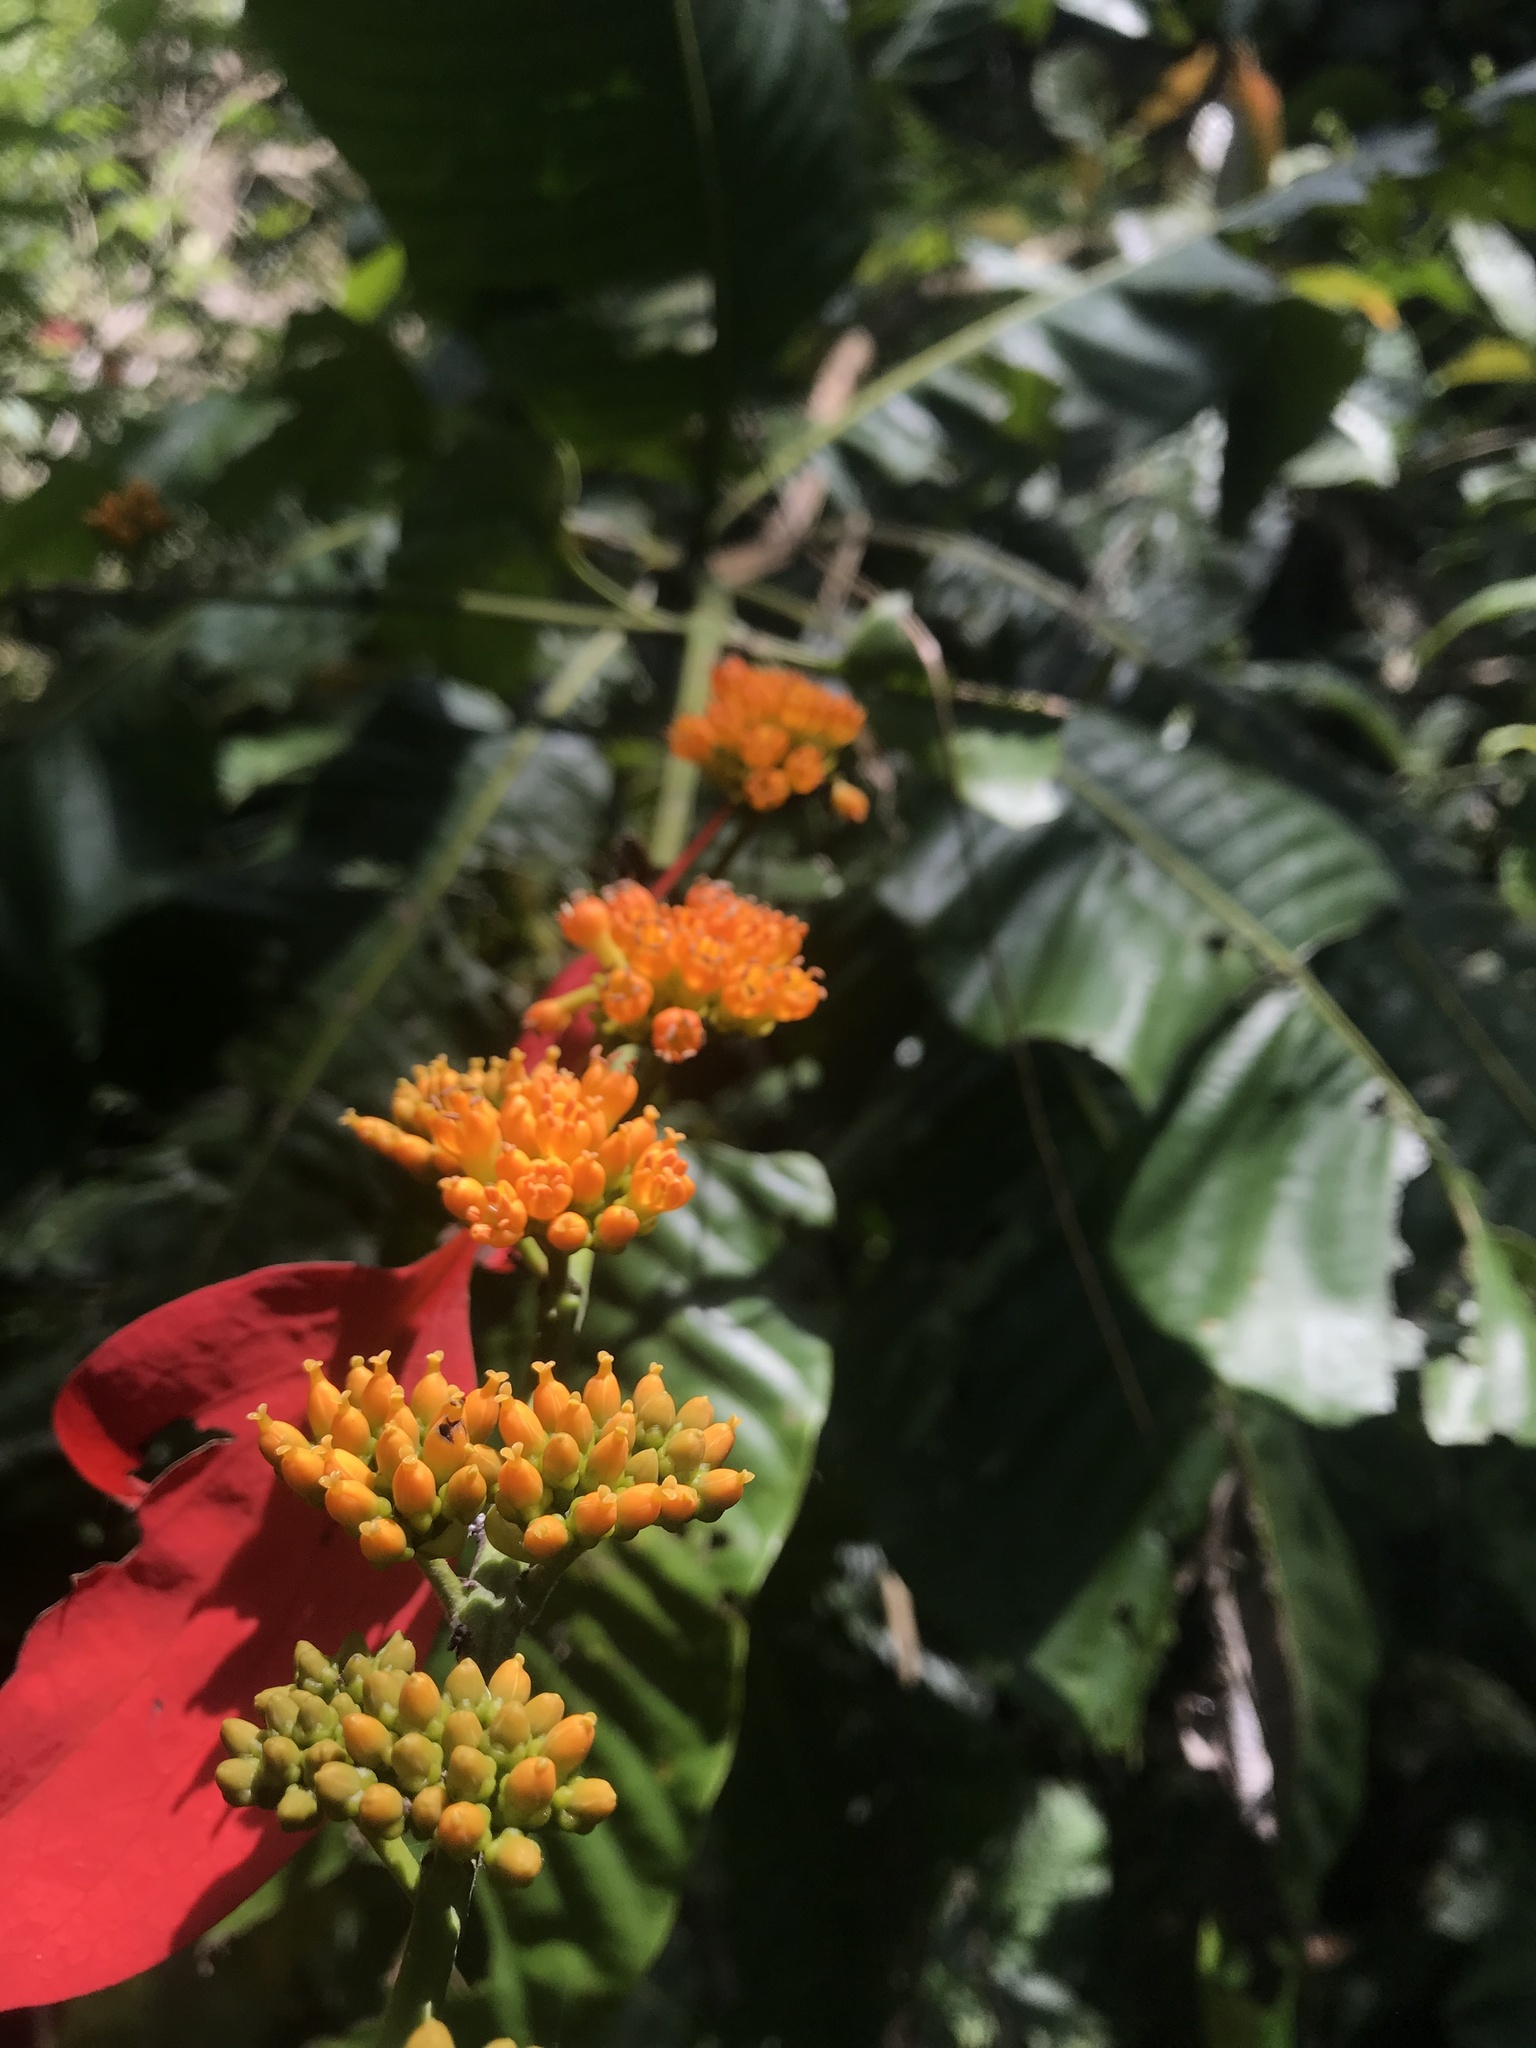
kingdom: Plantae
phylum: Tracheophyta
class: Magnoliopsida
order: Gentianales
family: Rubiaceae
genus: Warszewiczia
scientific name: Warszewiczia coccinea
